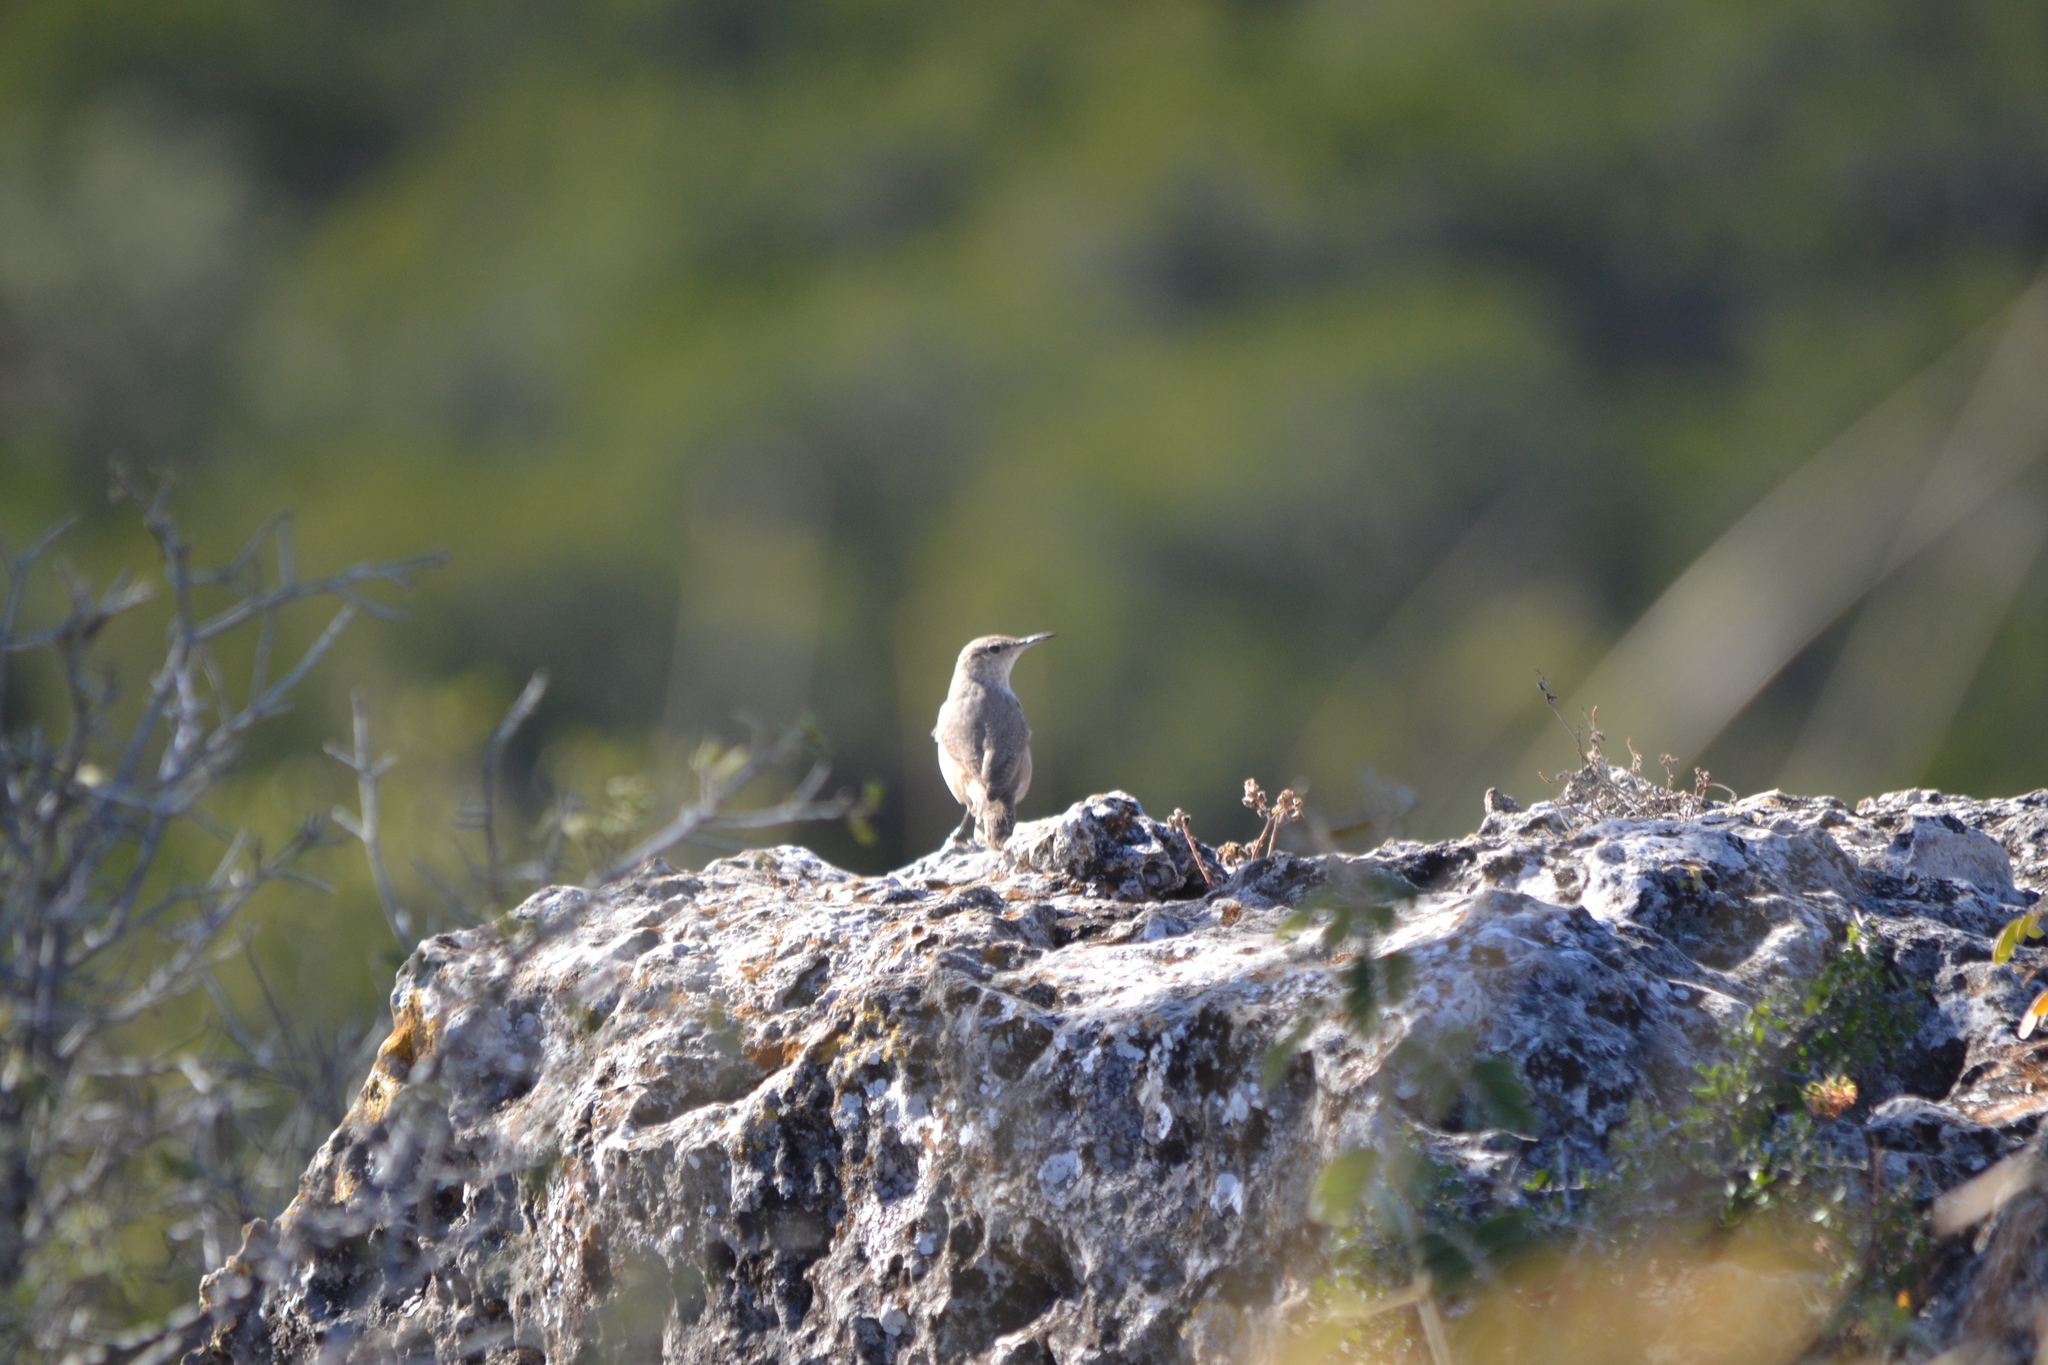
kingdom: Animalia
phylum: Chordata
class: Aves
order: Passeriformes
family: Troglodytidae
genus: Salpinctes
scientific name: Salpinctes obsoletus
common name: Rock wren
